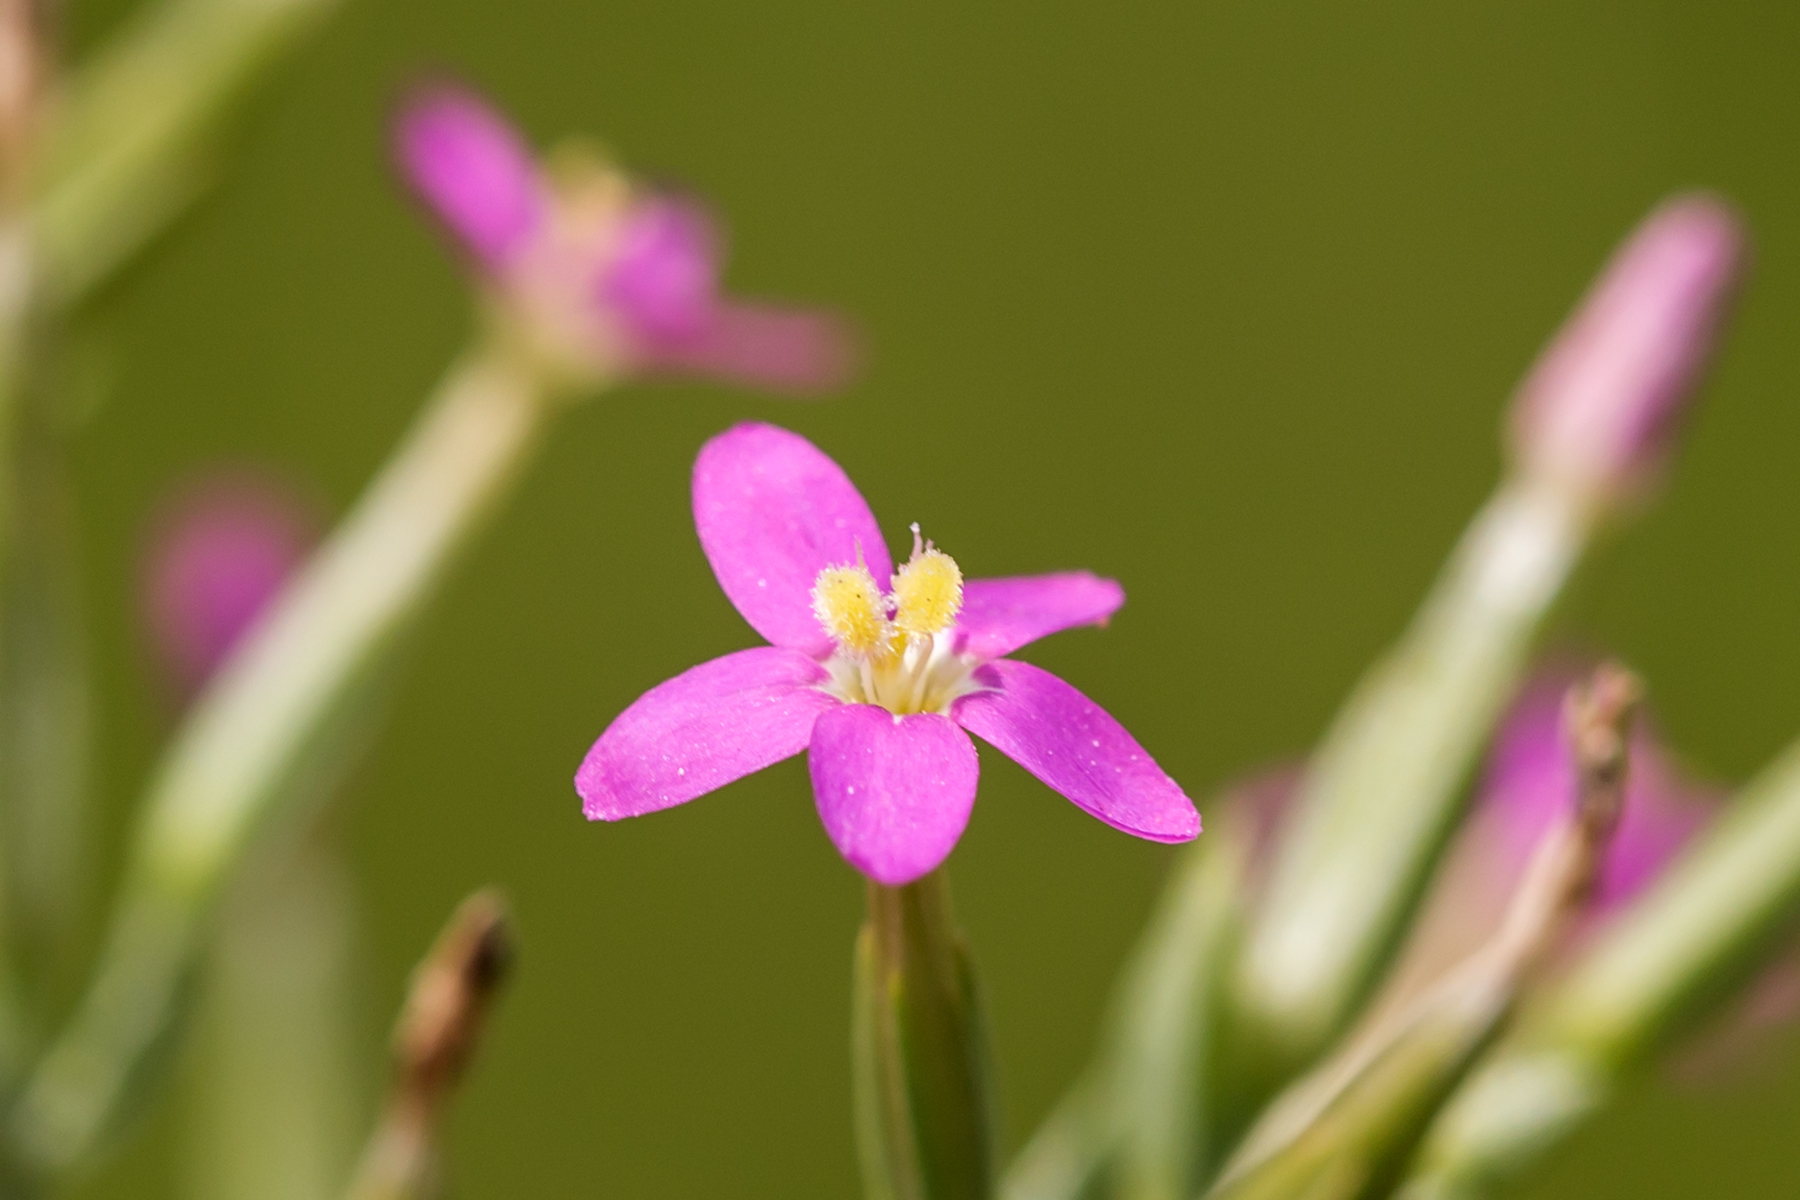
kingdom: Plantae
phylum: Tracheophyta
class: Magnoliopsida
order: Gentianales
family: Gentianaceae
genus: Centaurium
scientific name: Centaurium pulchellum
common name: Lesser centaury
